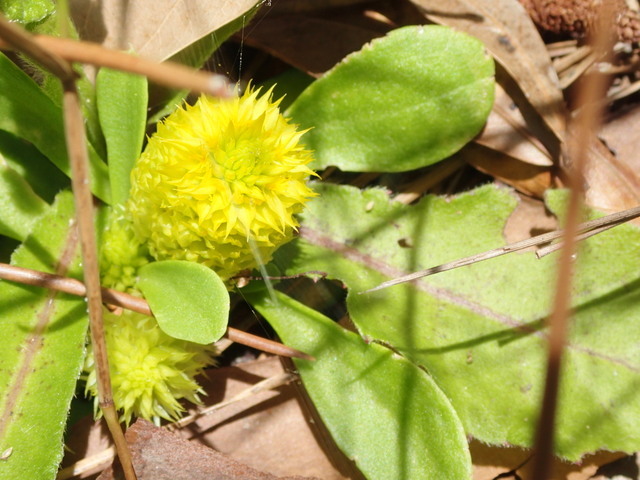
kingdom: Plantae
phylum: Tracheophyta
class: Magnoliopsida
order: Fabales
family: Polygalaceae
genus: Polygala
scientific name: Polygala nana
